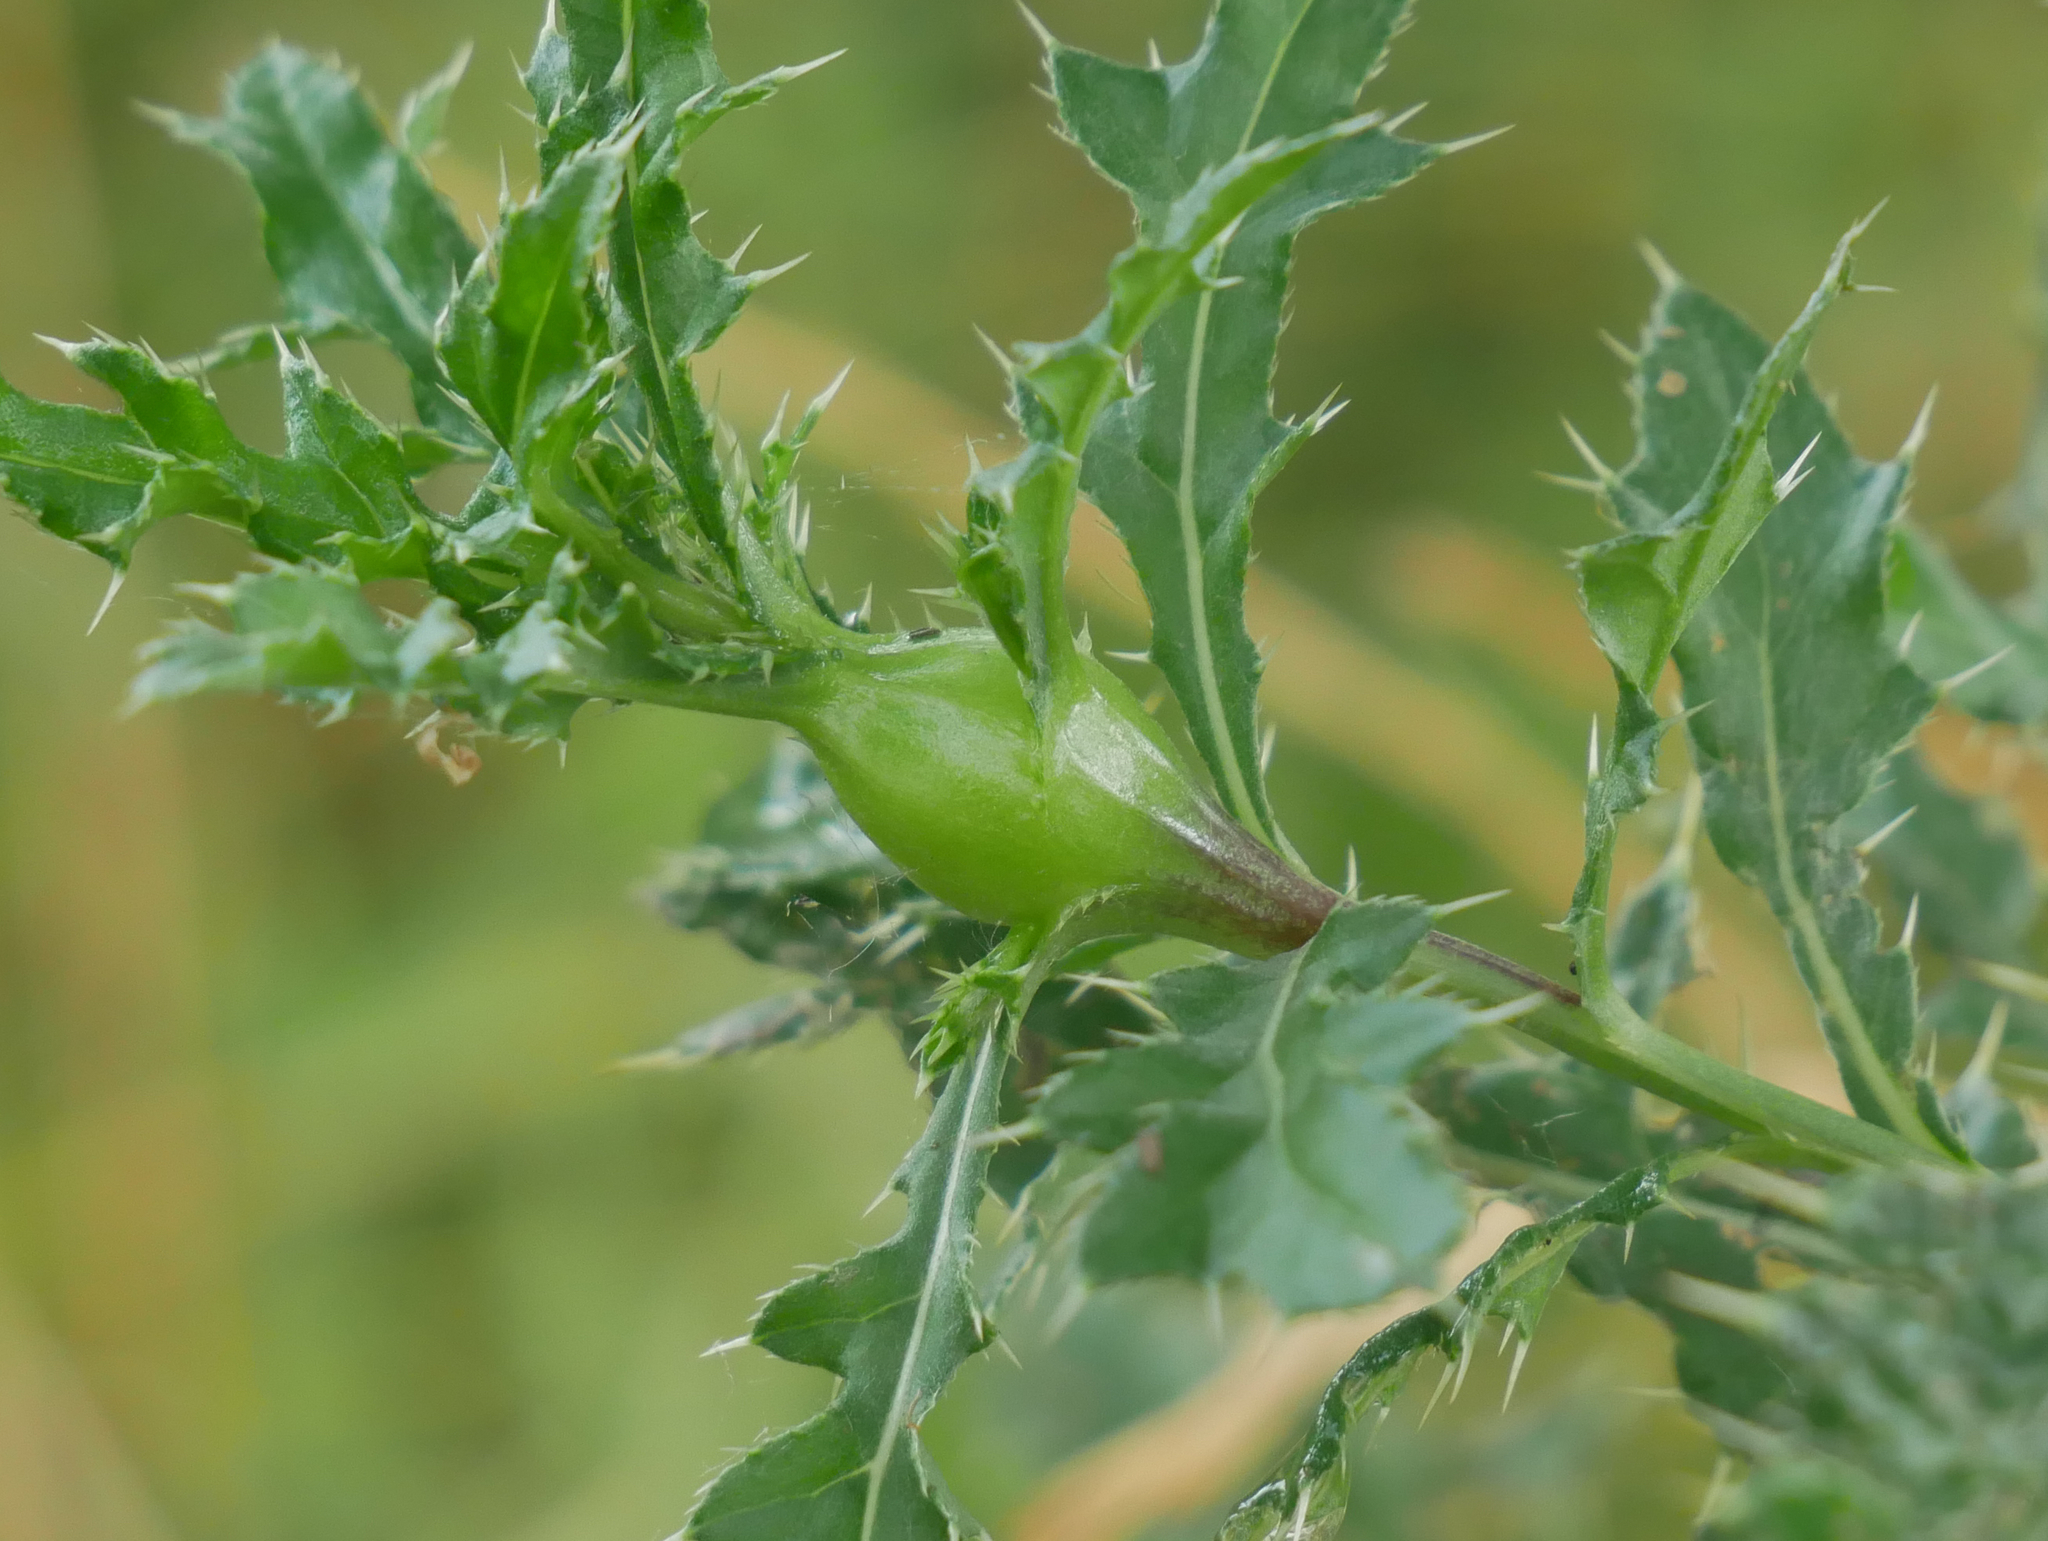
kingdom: Animalia
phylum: Arthropoda
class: Insecta
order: Diptera
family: Tephritidae
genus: Urophora
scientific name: Urophora cardui
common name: Fruit fly
